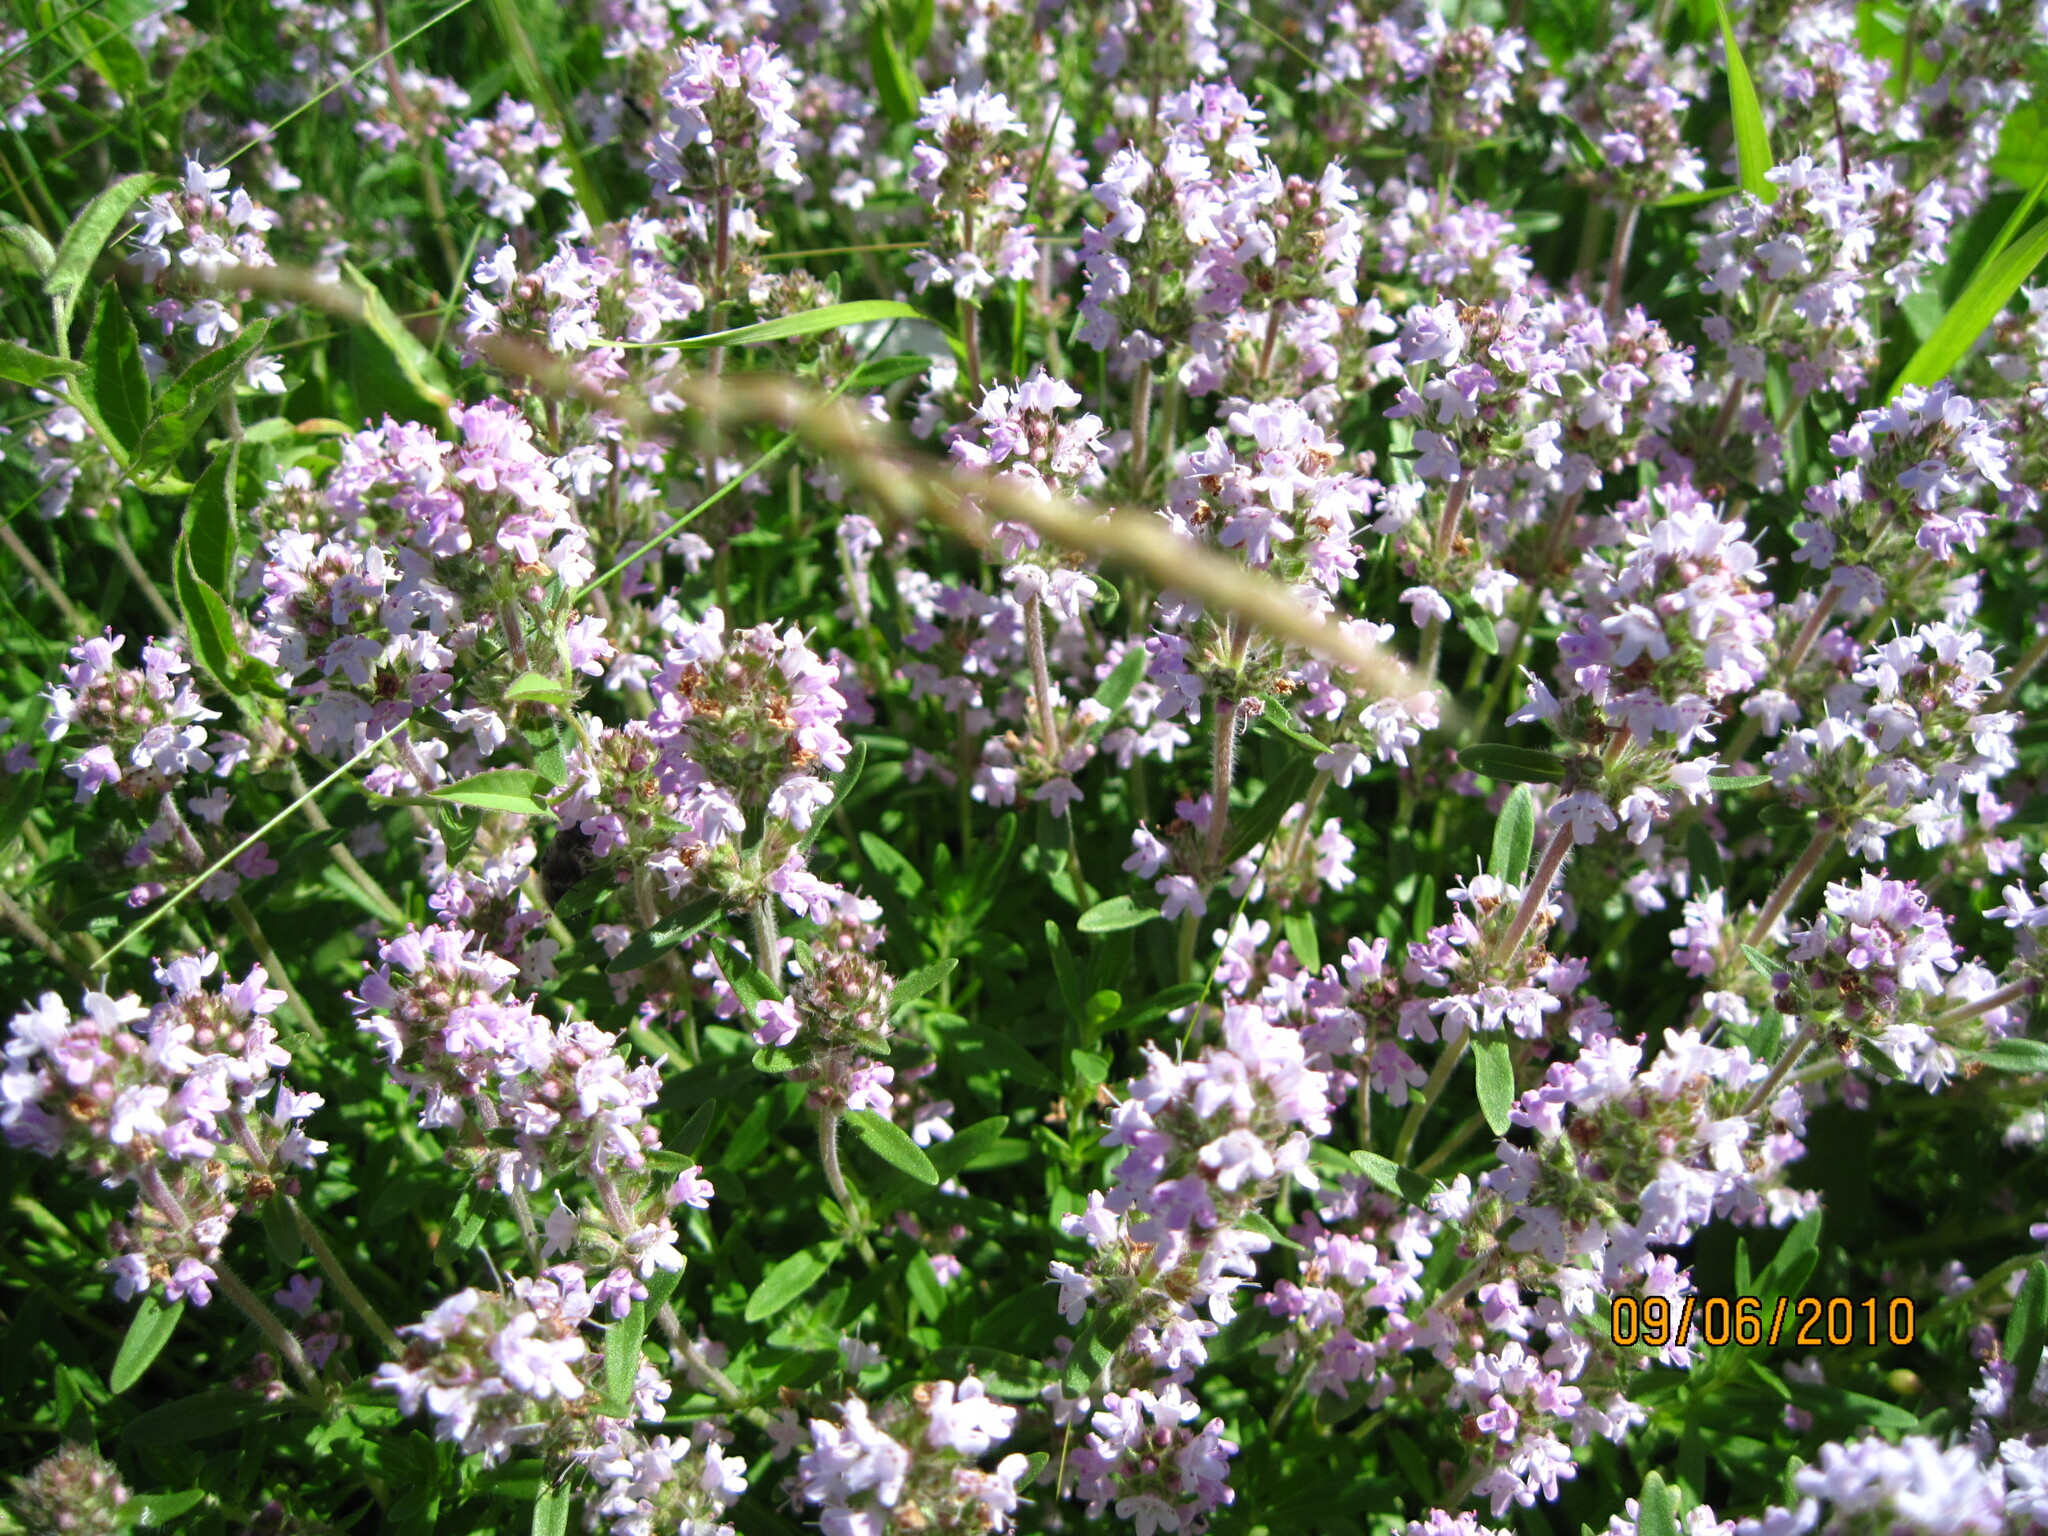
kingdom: Plantae
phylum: Tracheophyta
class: Magnoliopsida
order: Lamiales
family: Lamiaceae
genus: Thymus
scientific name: Thymus pannonicus
